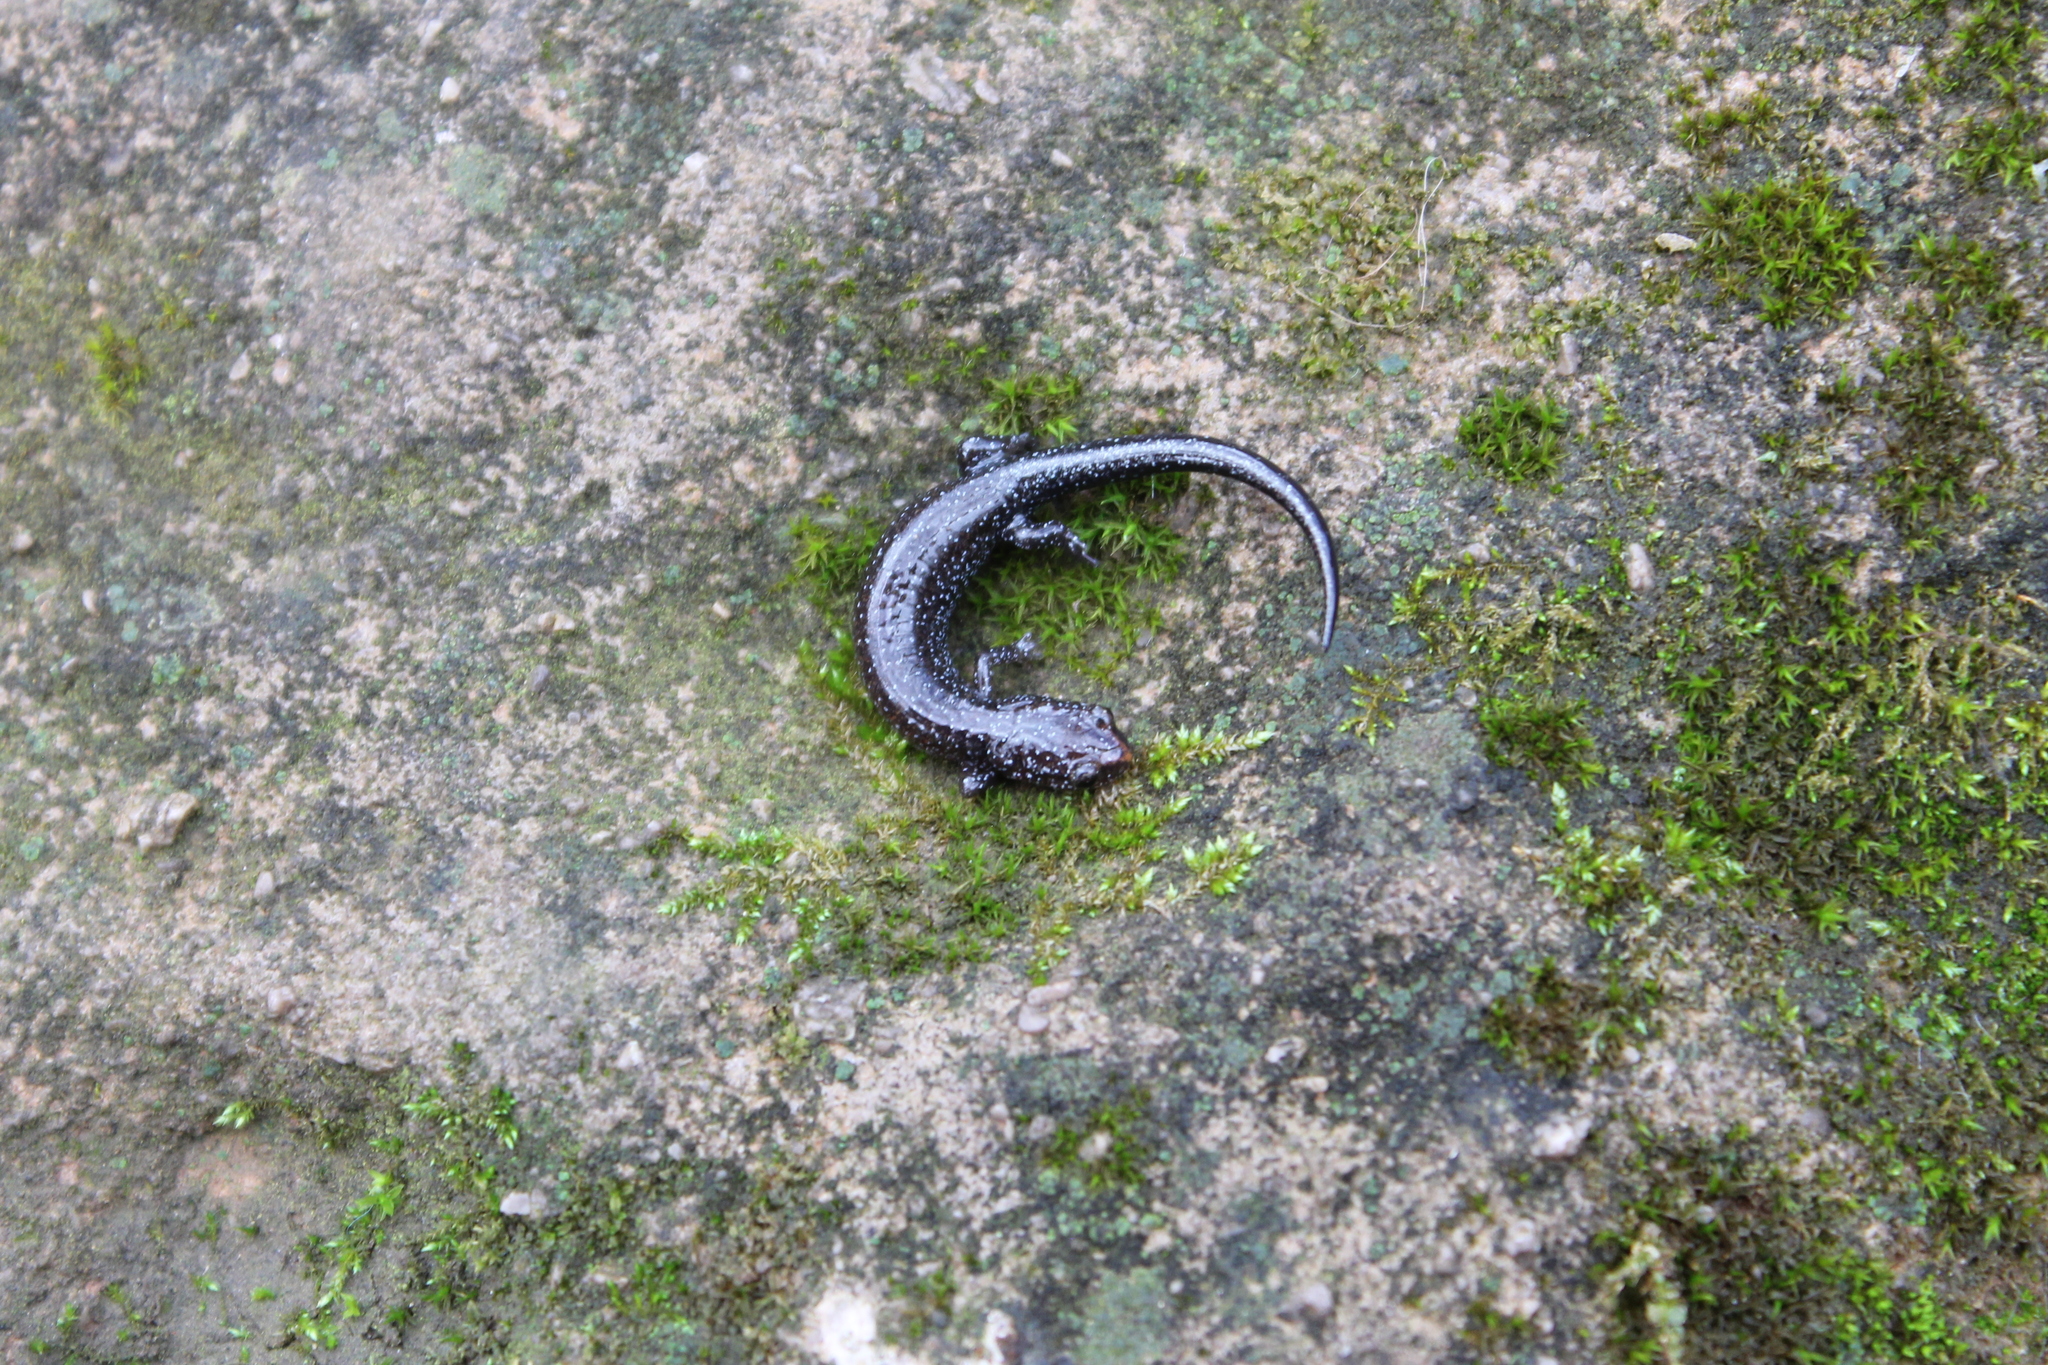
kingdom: Animalia
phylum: Chordata
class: Amphibia
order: Caudata
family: Plethodontidae
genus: Plethodon
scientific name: Plethodon glutinosus
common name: Northern slimy salamander
